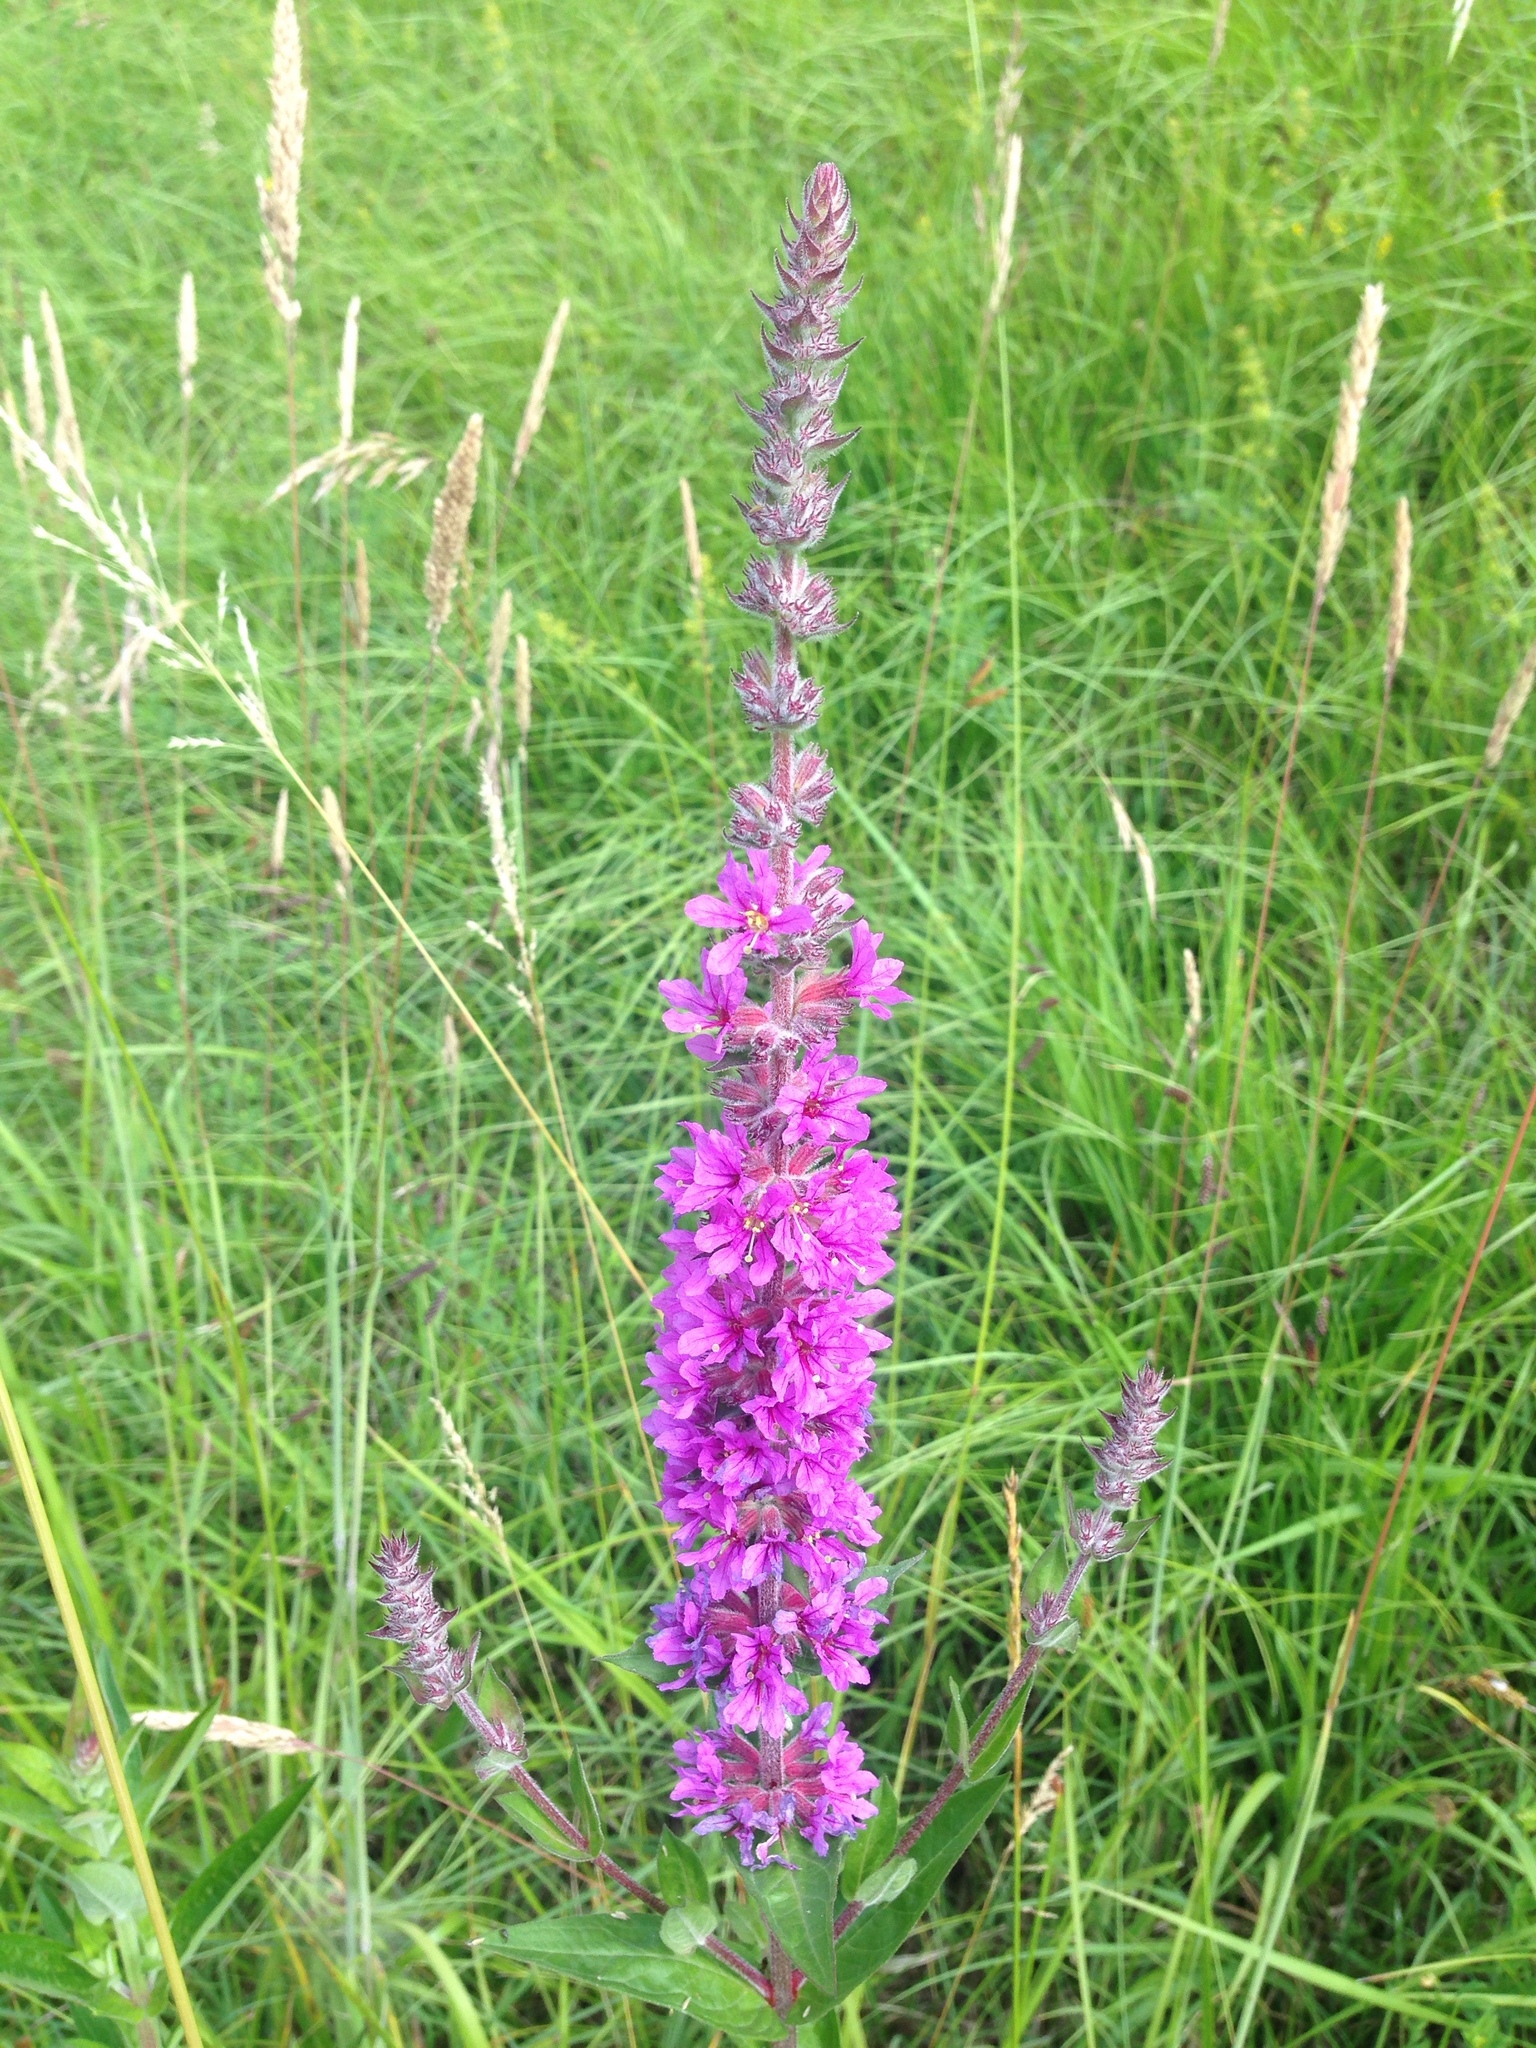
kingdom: Plantae
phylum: Tracheophyta
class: Magnoliopsida
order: Myrtales
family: Lythraceae
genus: Lythrum
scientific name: Lythrum salicaria
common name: Purple loosestrife
